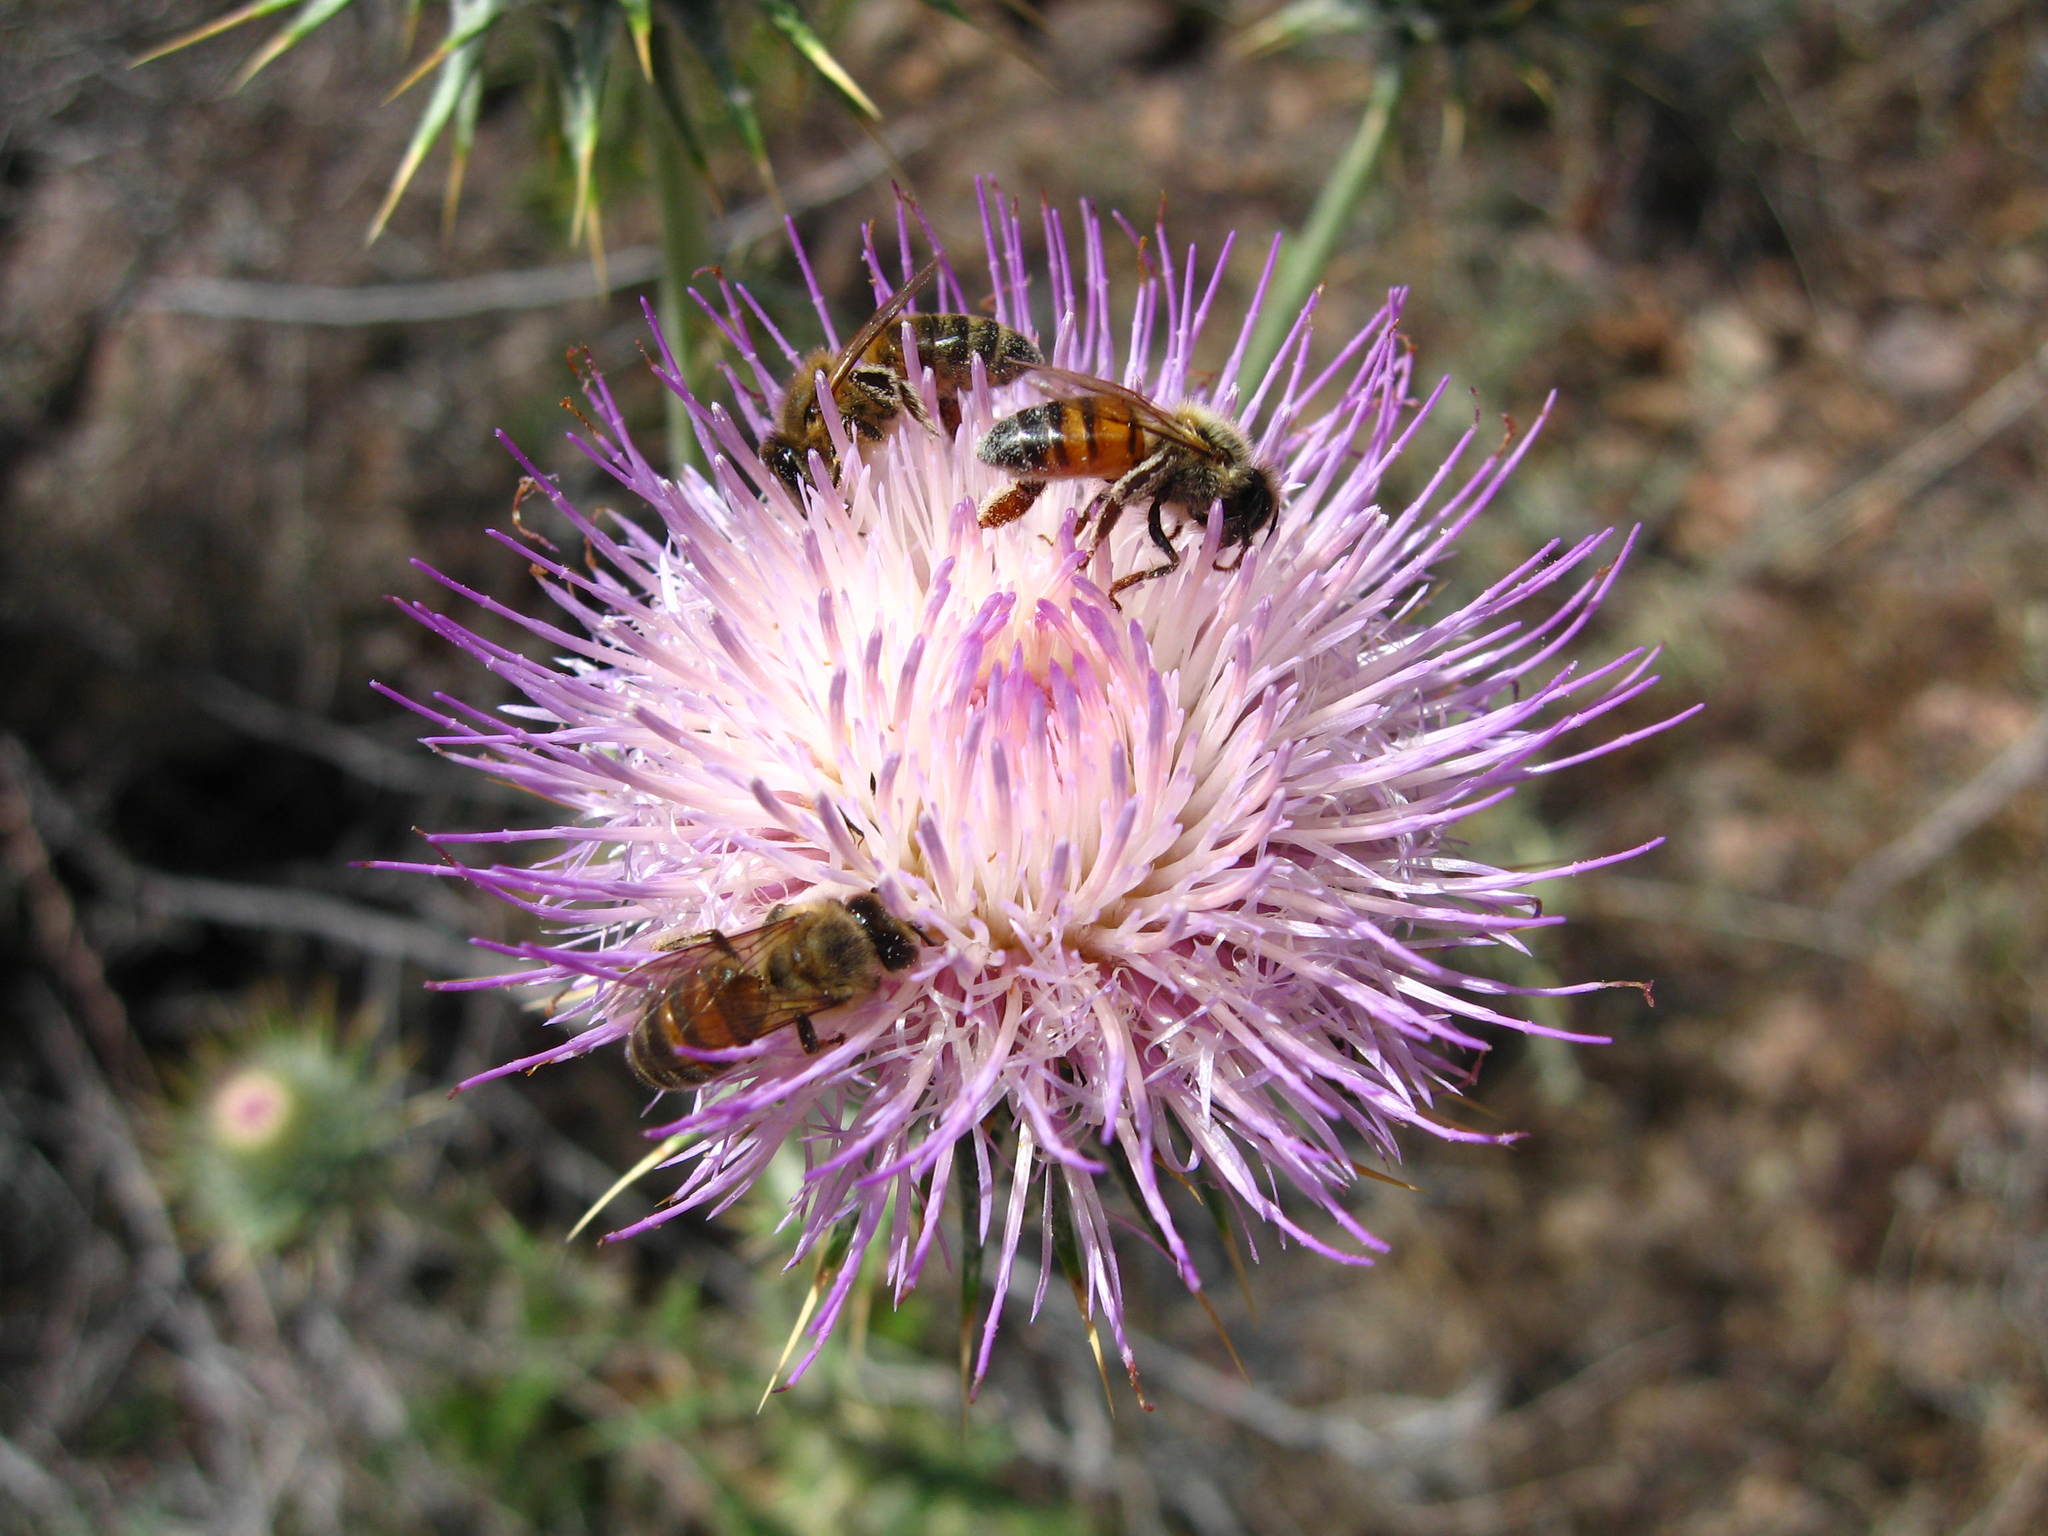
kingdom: Animalia
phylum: Arthropoda
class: Insecta
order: Hymenoptera
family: Apidae
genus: Apis
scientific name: Apis mellifera
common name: Honey bee
